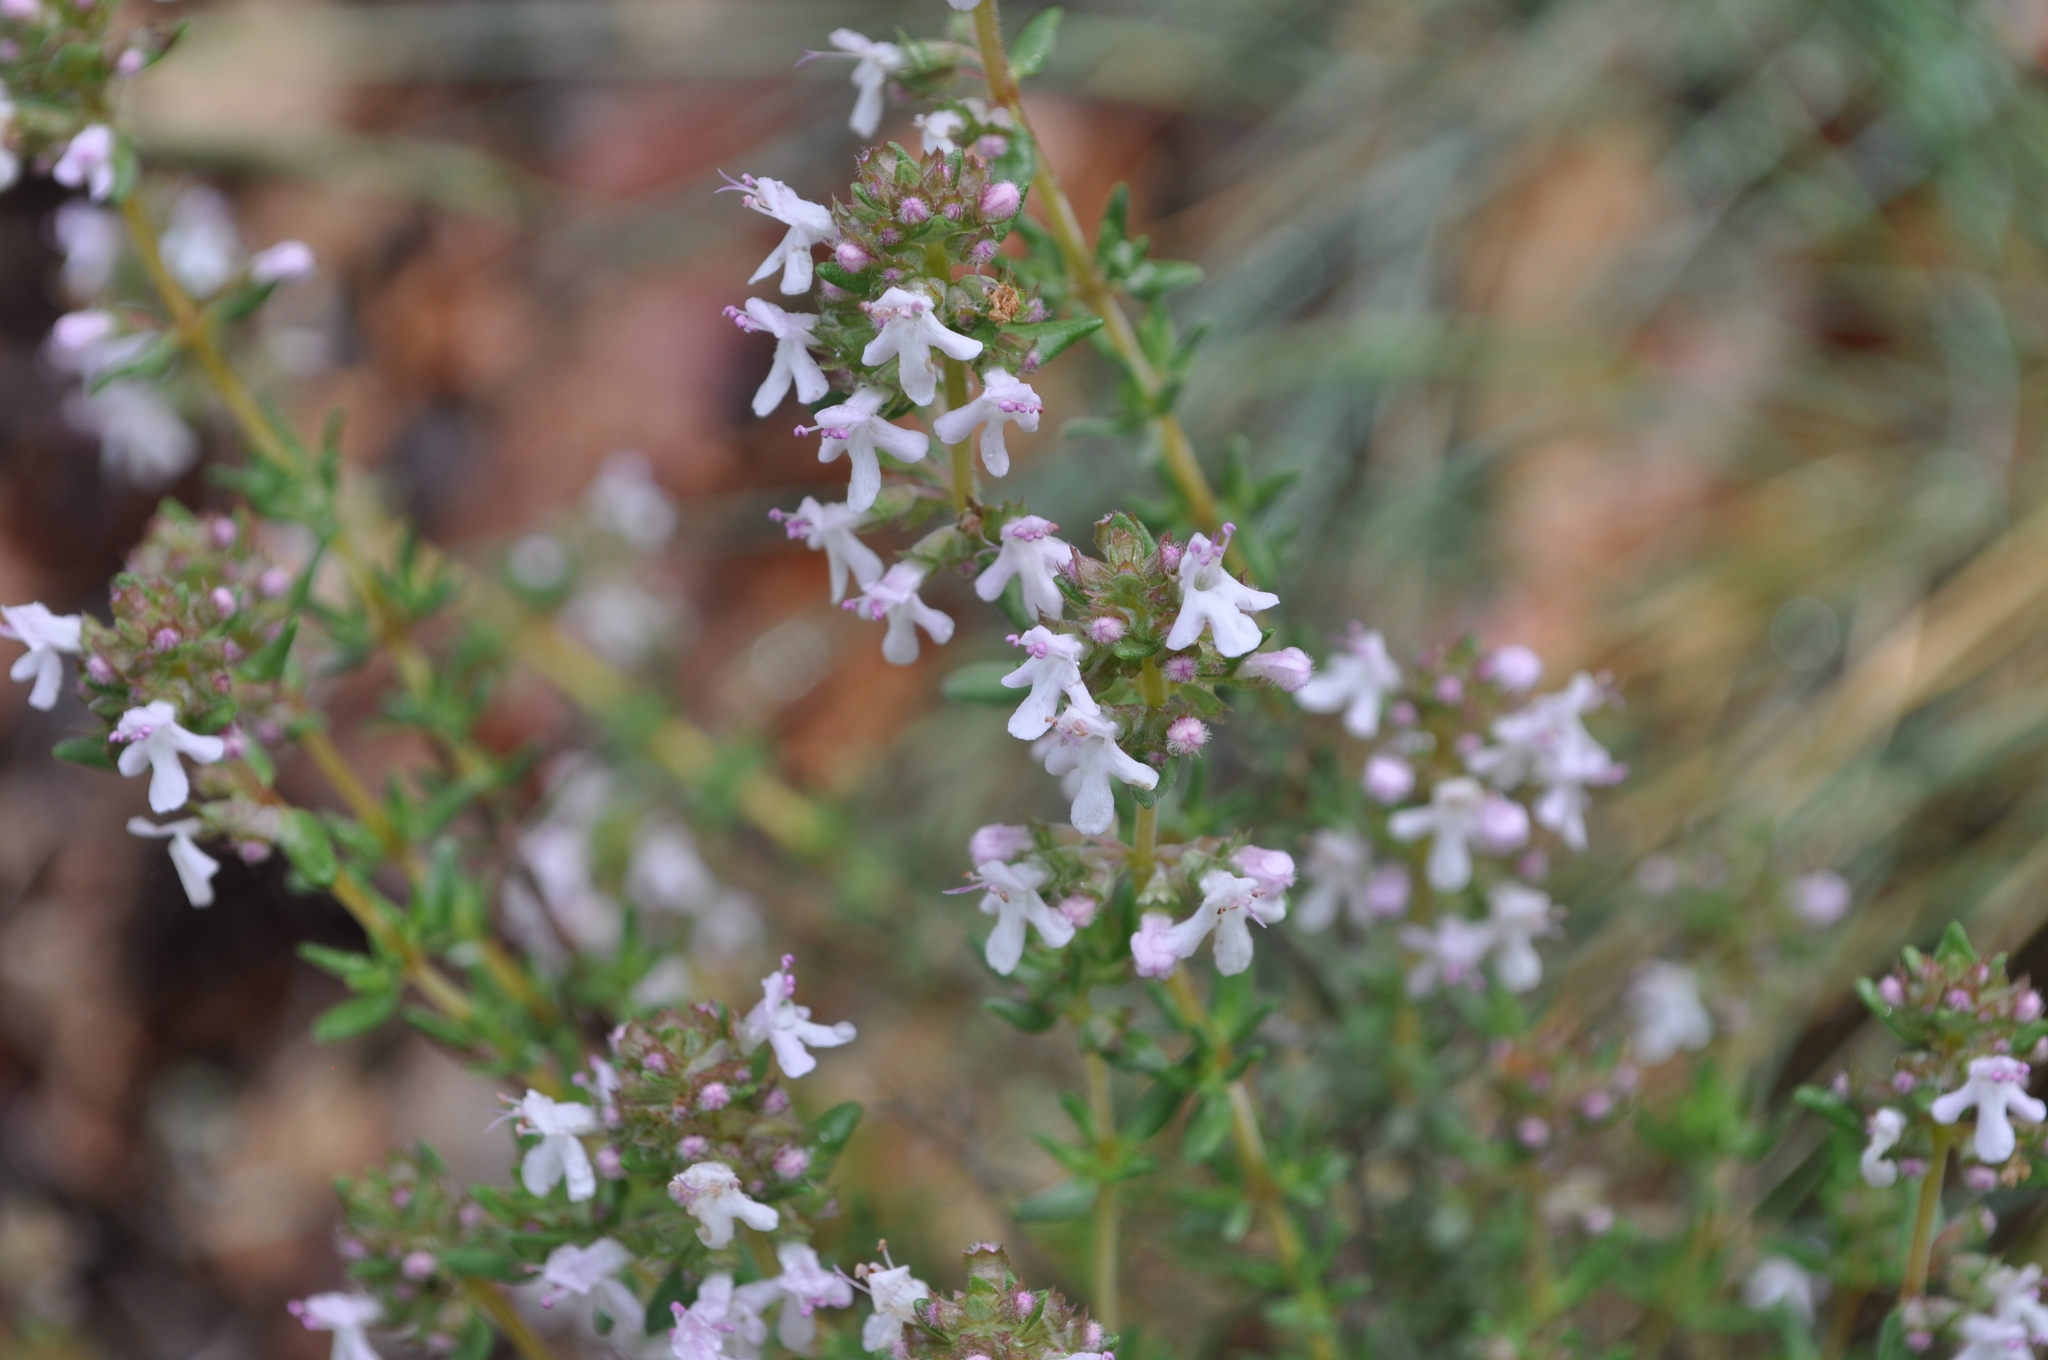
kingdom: Plantae
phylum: Tracheophyta
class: Magnoliopsida
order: Lamiales
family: Lamiaceae
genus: Thymus
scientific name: Thymus vulgaris
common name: Garden thyme
